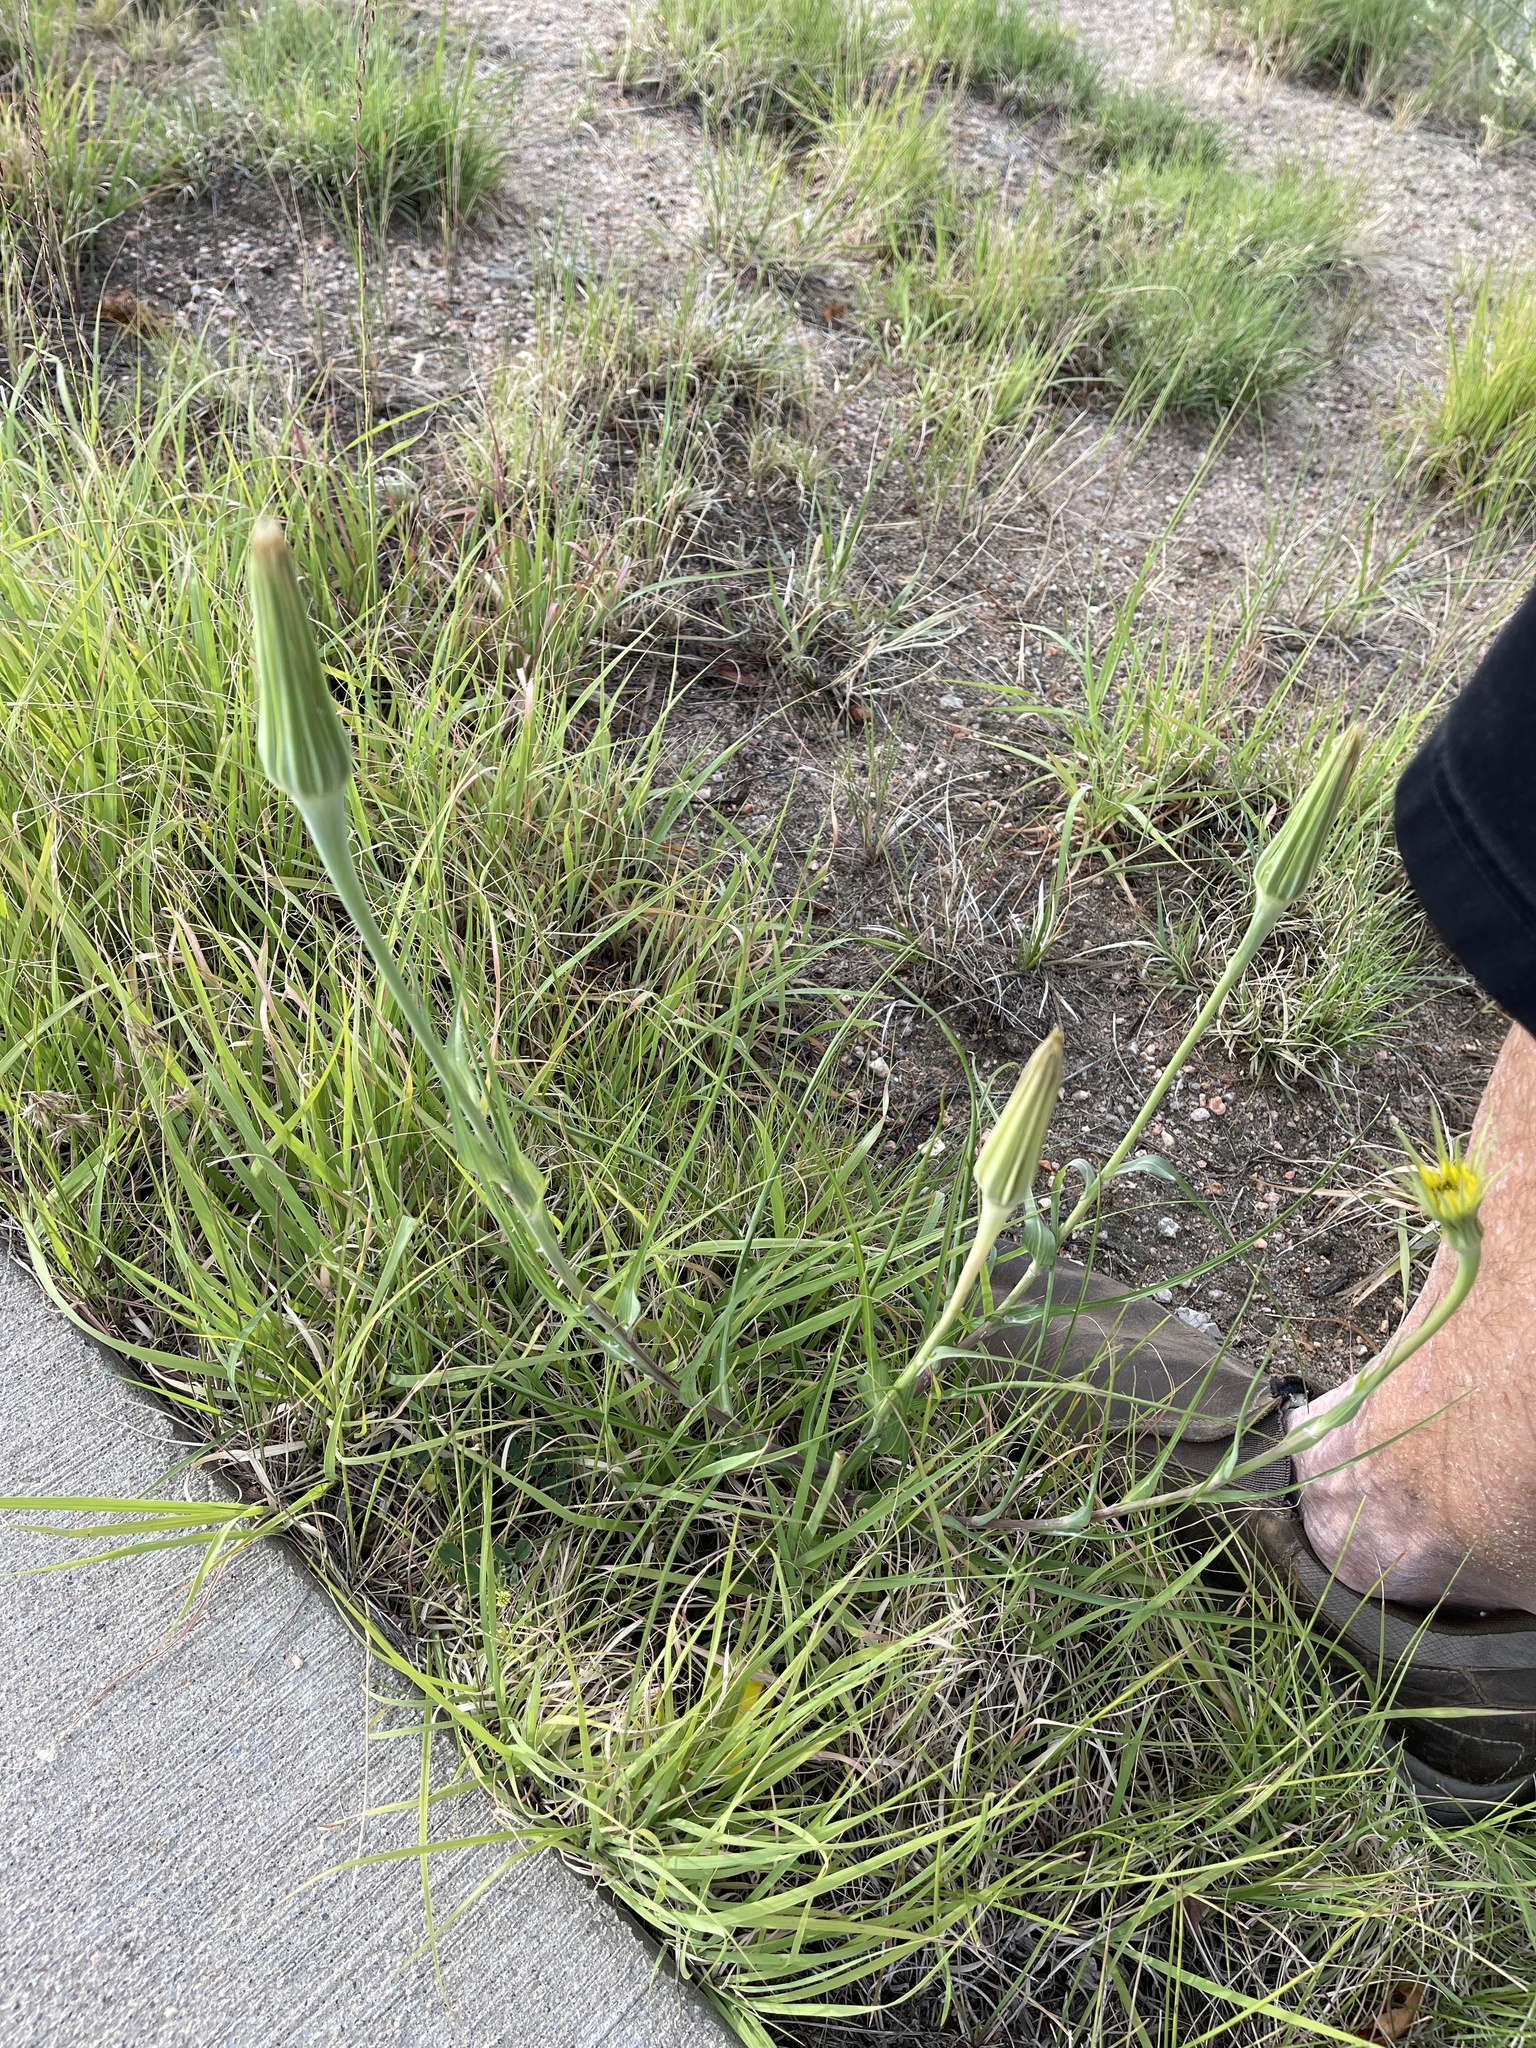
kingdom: Plantae
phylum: Tracheophyta
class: Magnoliopsida
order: Asterales
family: Asteraceae
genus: Tragopogon
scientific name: Tragopogon dubius
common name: Yellow salsify
